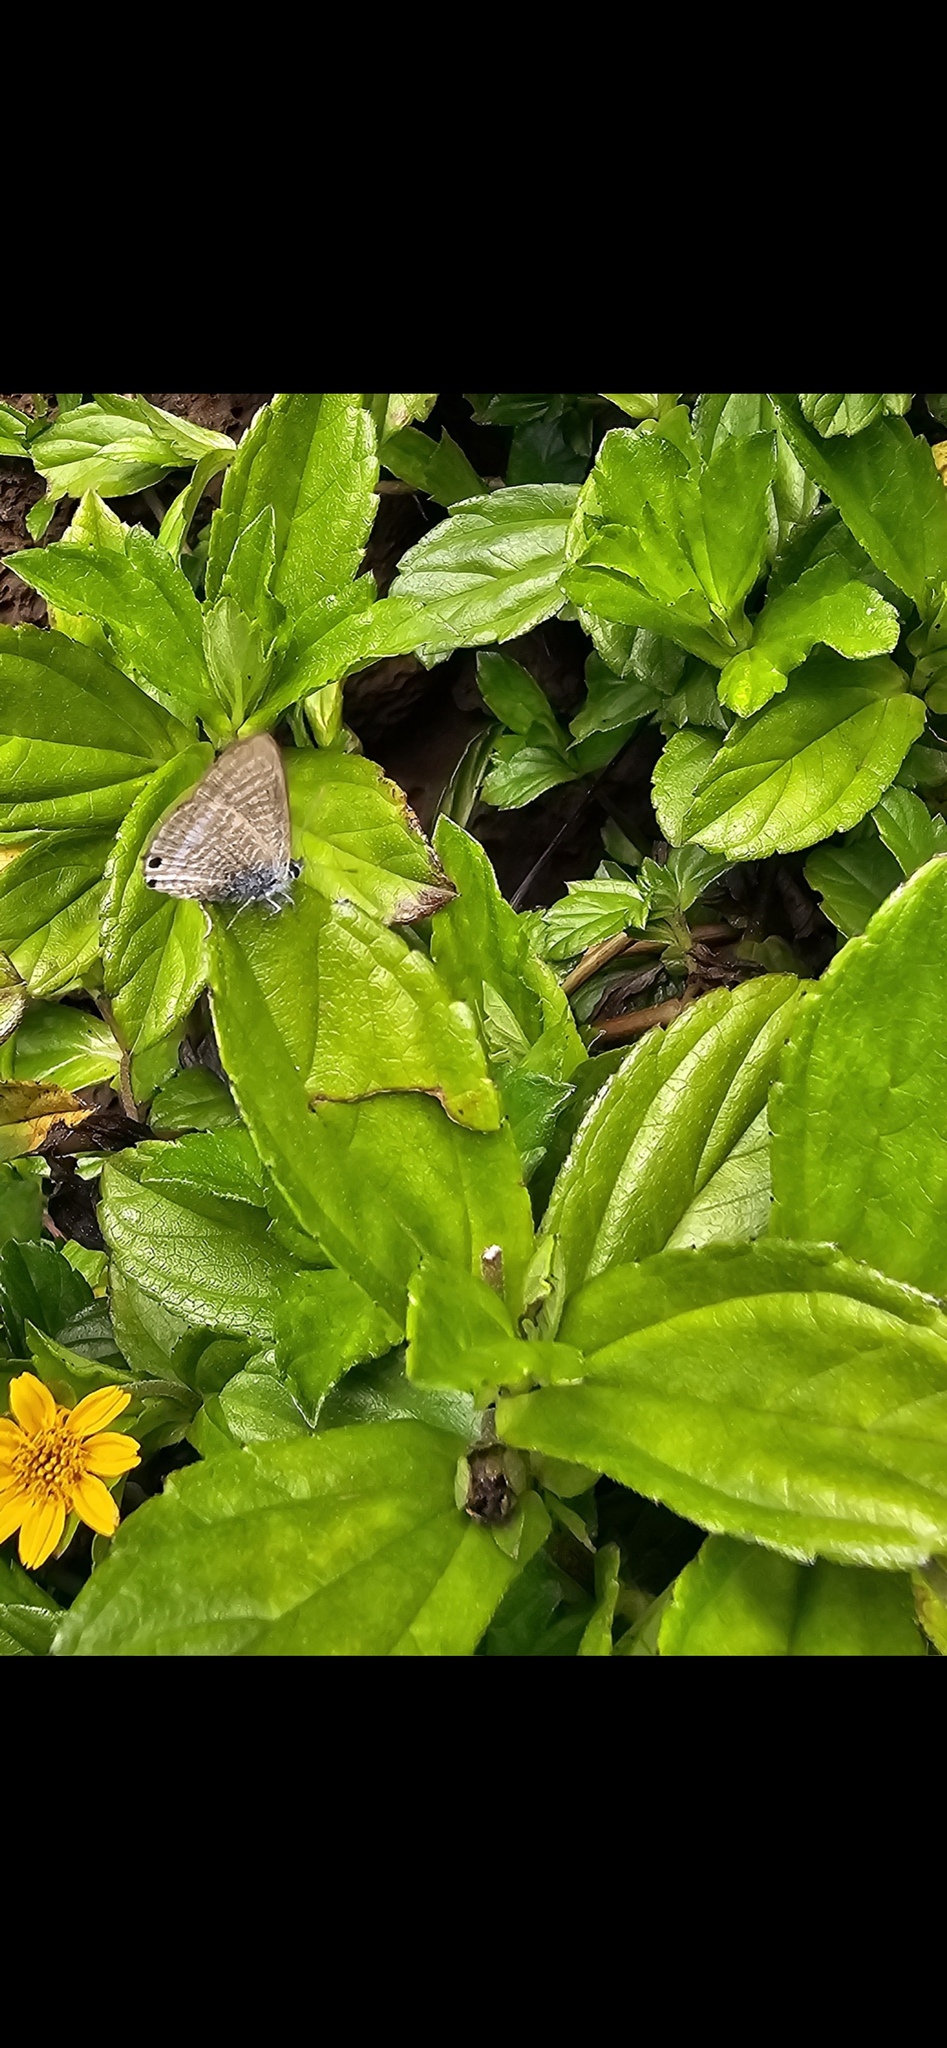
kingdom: Animalia
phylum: Arthropoda
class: Insecta
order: Lepidoptera
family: Lycaenidae
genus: Lampides
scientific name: Lampides boeticus
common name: Long-tailed blue
